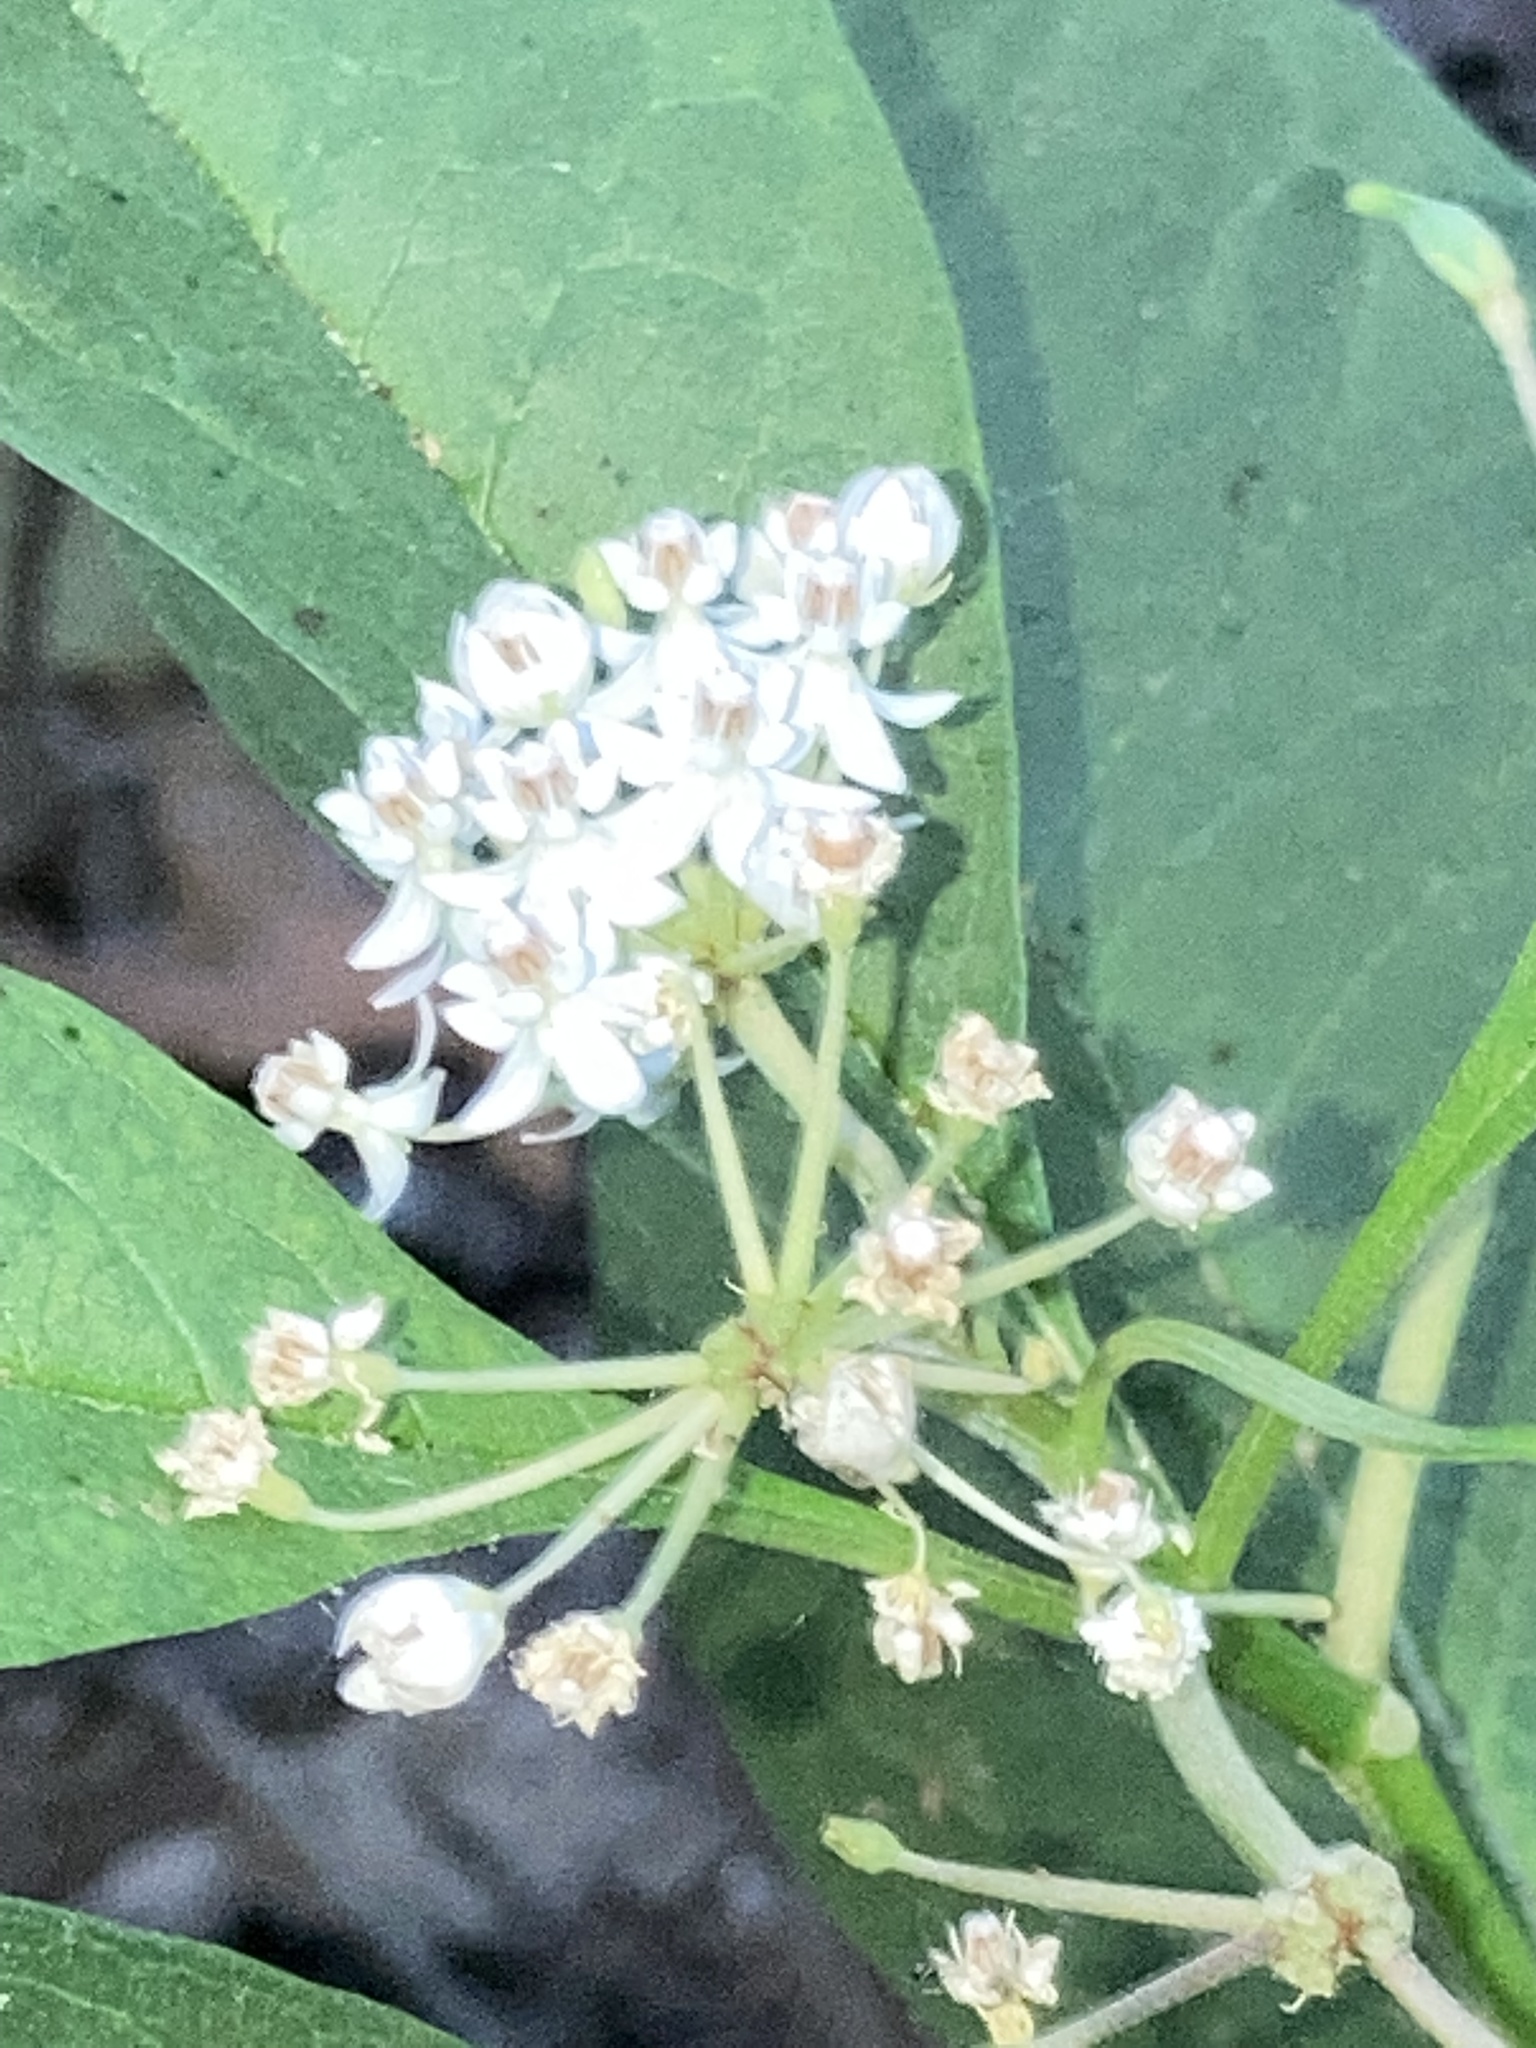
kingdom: Plantae
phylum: Tracheophyta
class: Magnoliopsida
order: Gentianales
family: Apocynaceae
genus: Asclepias
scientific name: Asclepias perennis
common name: Smooth-seed milkweed
